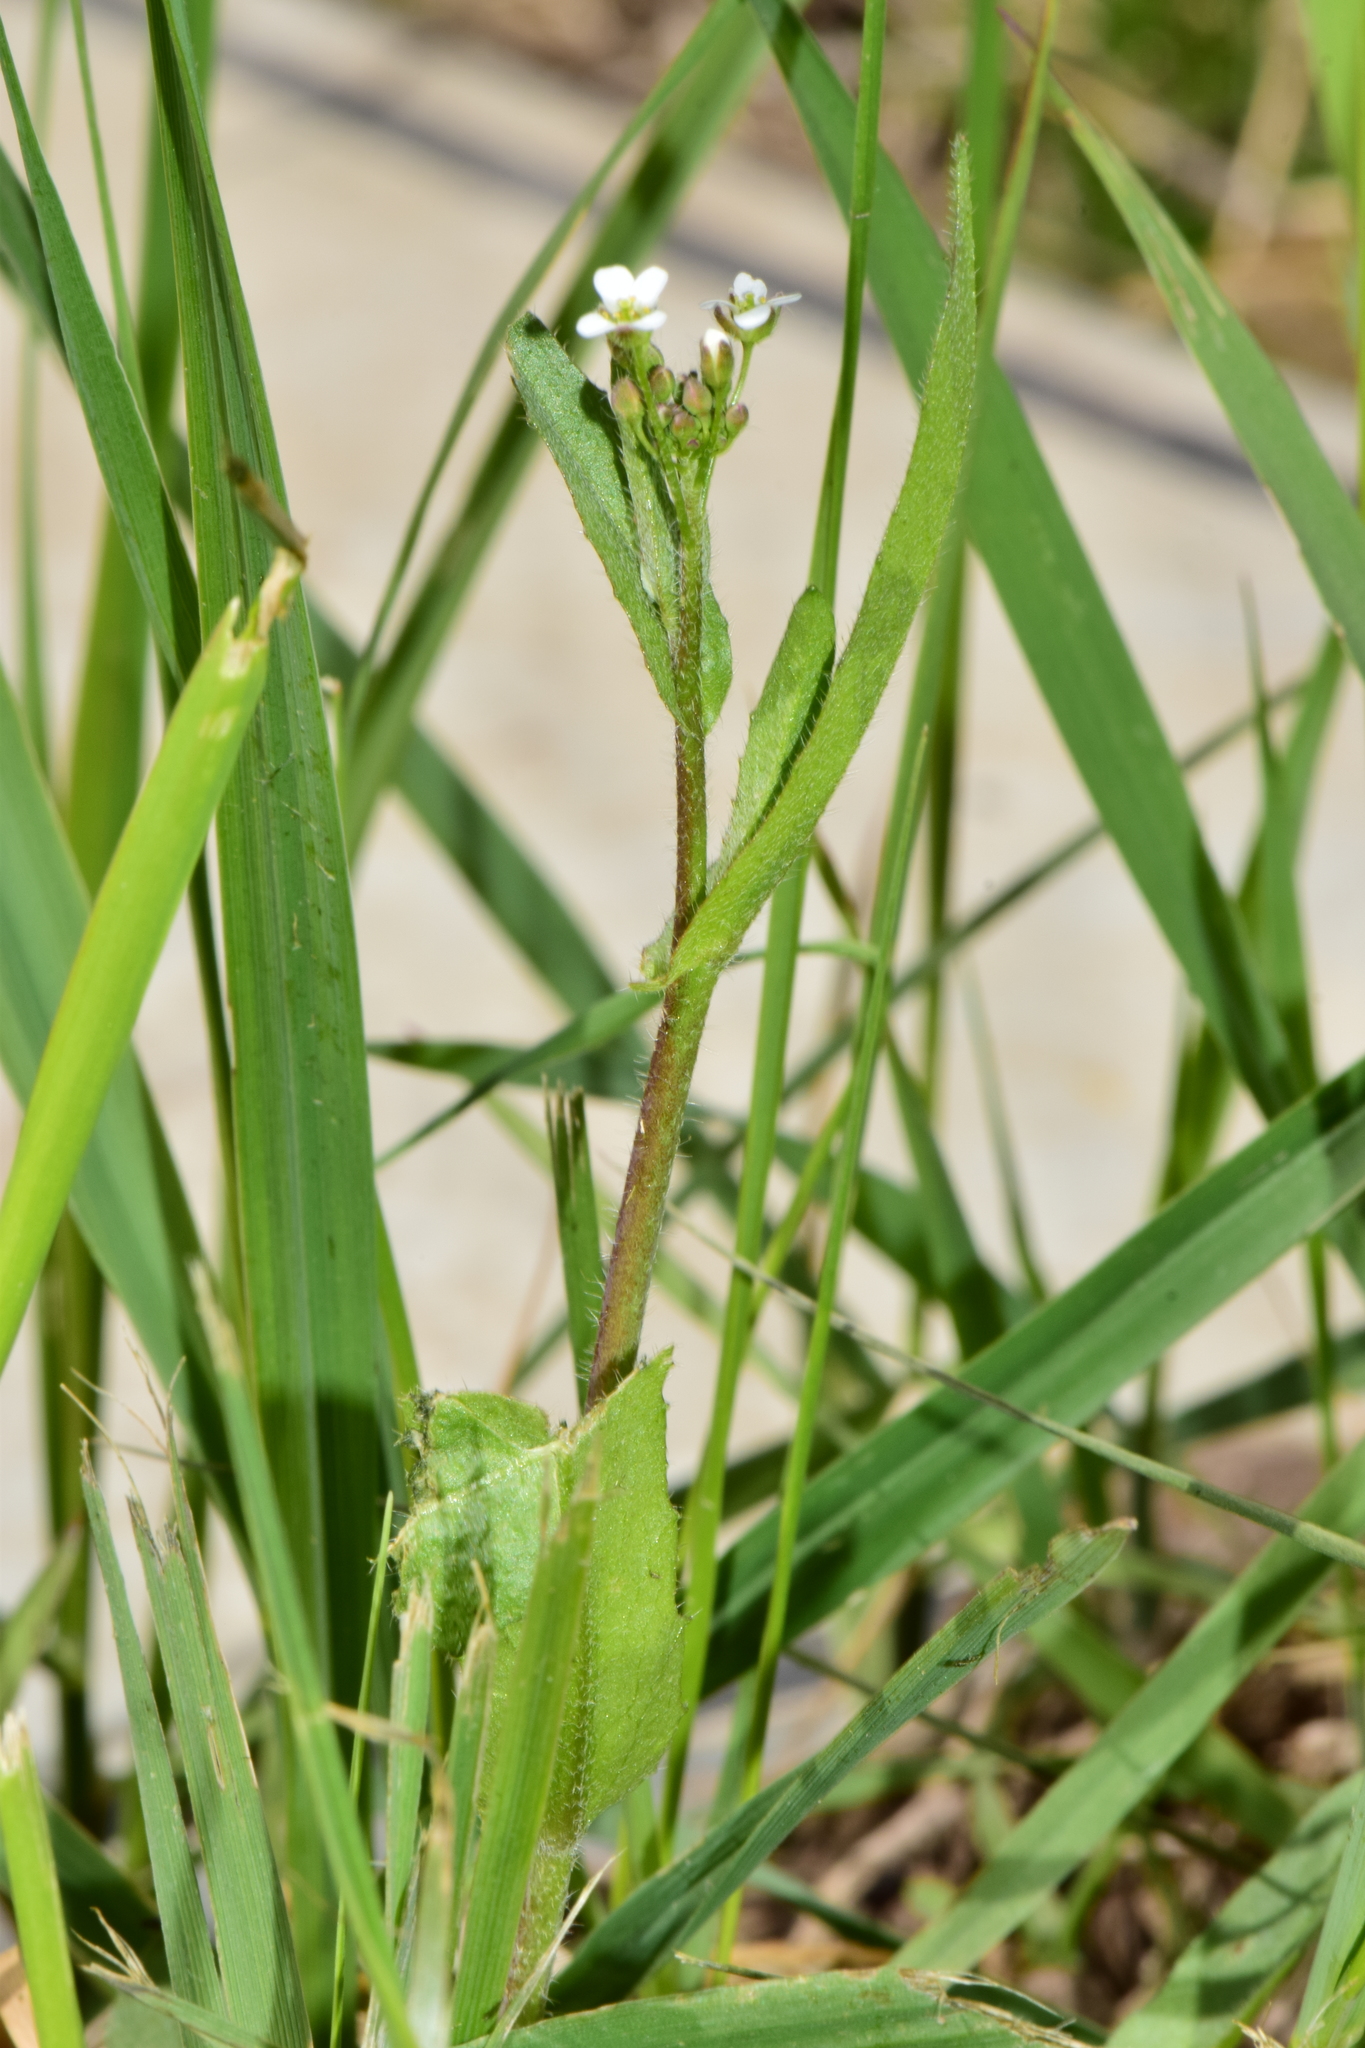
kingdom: Plantae
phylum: Tracheophyta
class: Magnoliopsida
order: Brassicales
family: Brassicaceae
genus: Capsella
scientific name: Capsella bursa-pastoris
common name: Shepherd's purse
